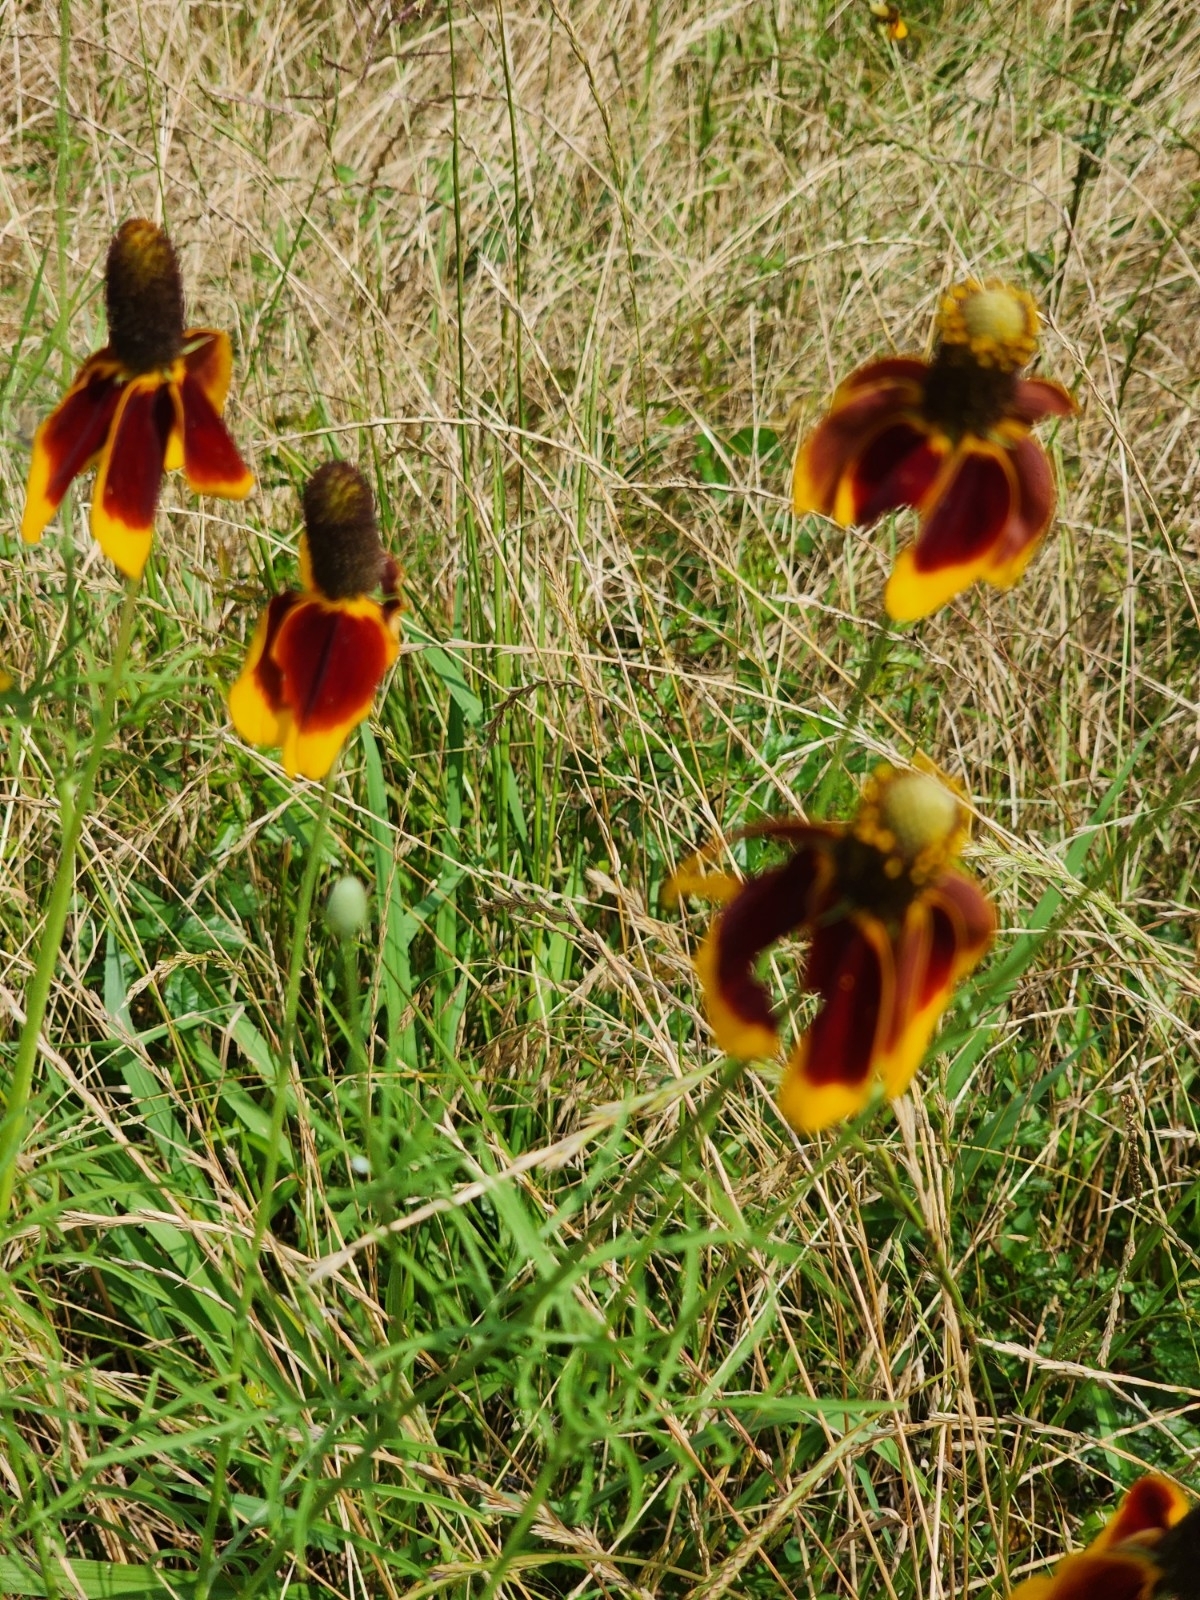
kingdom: Plantae
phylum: Tracheophyta
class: Magnoliopsida
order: Asterales
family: Asteraceae
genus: Ratibida
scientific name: Ratibida columnifera
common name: Prairie coneflower
